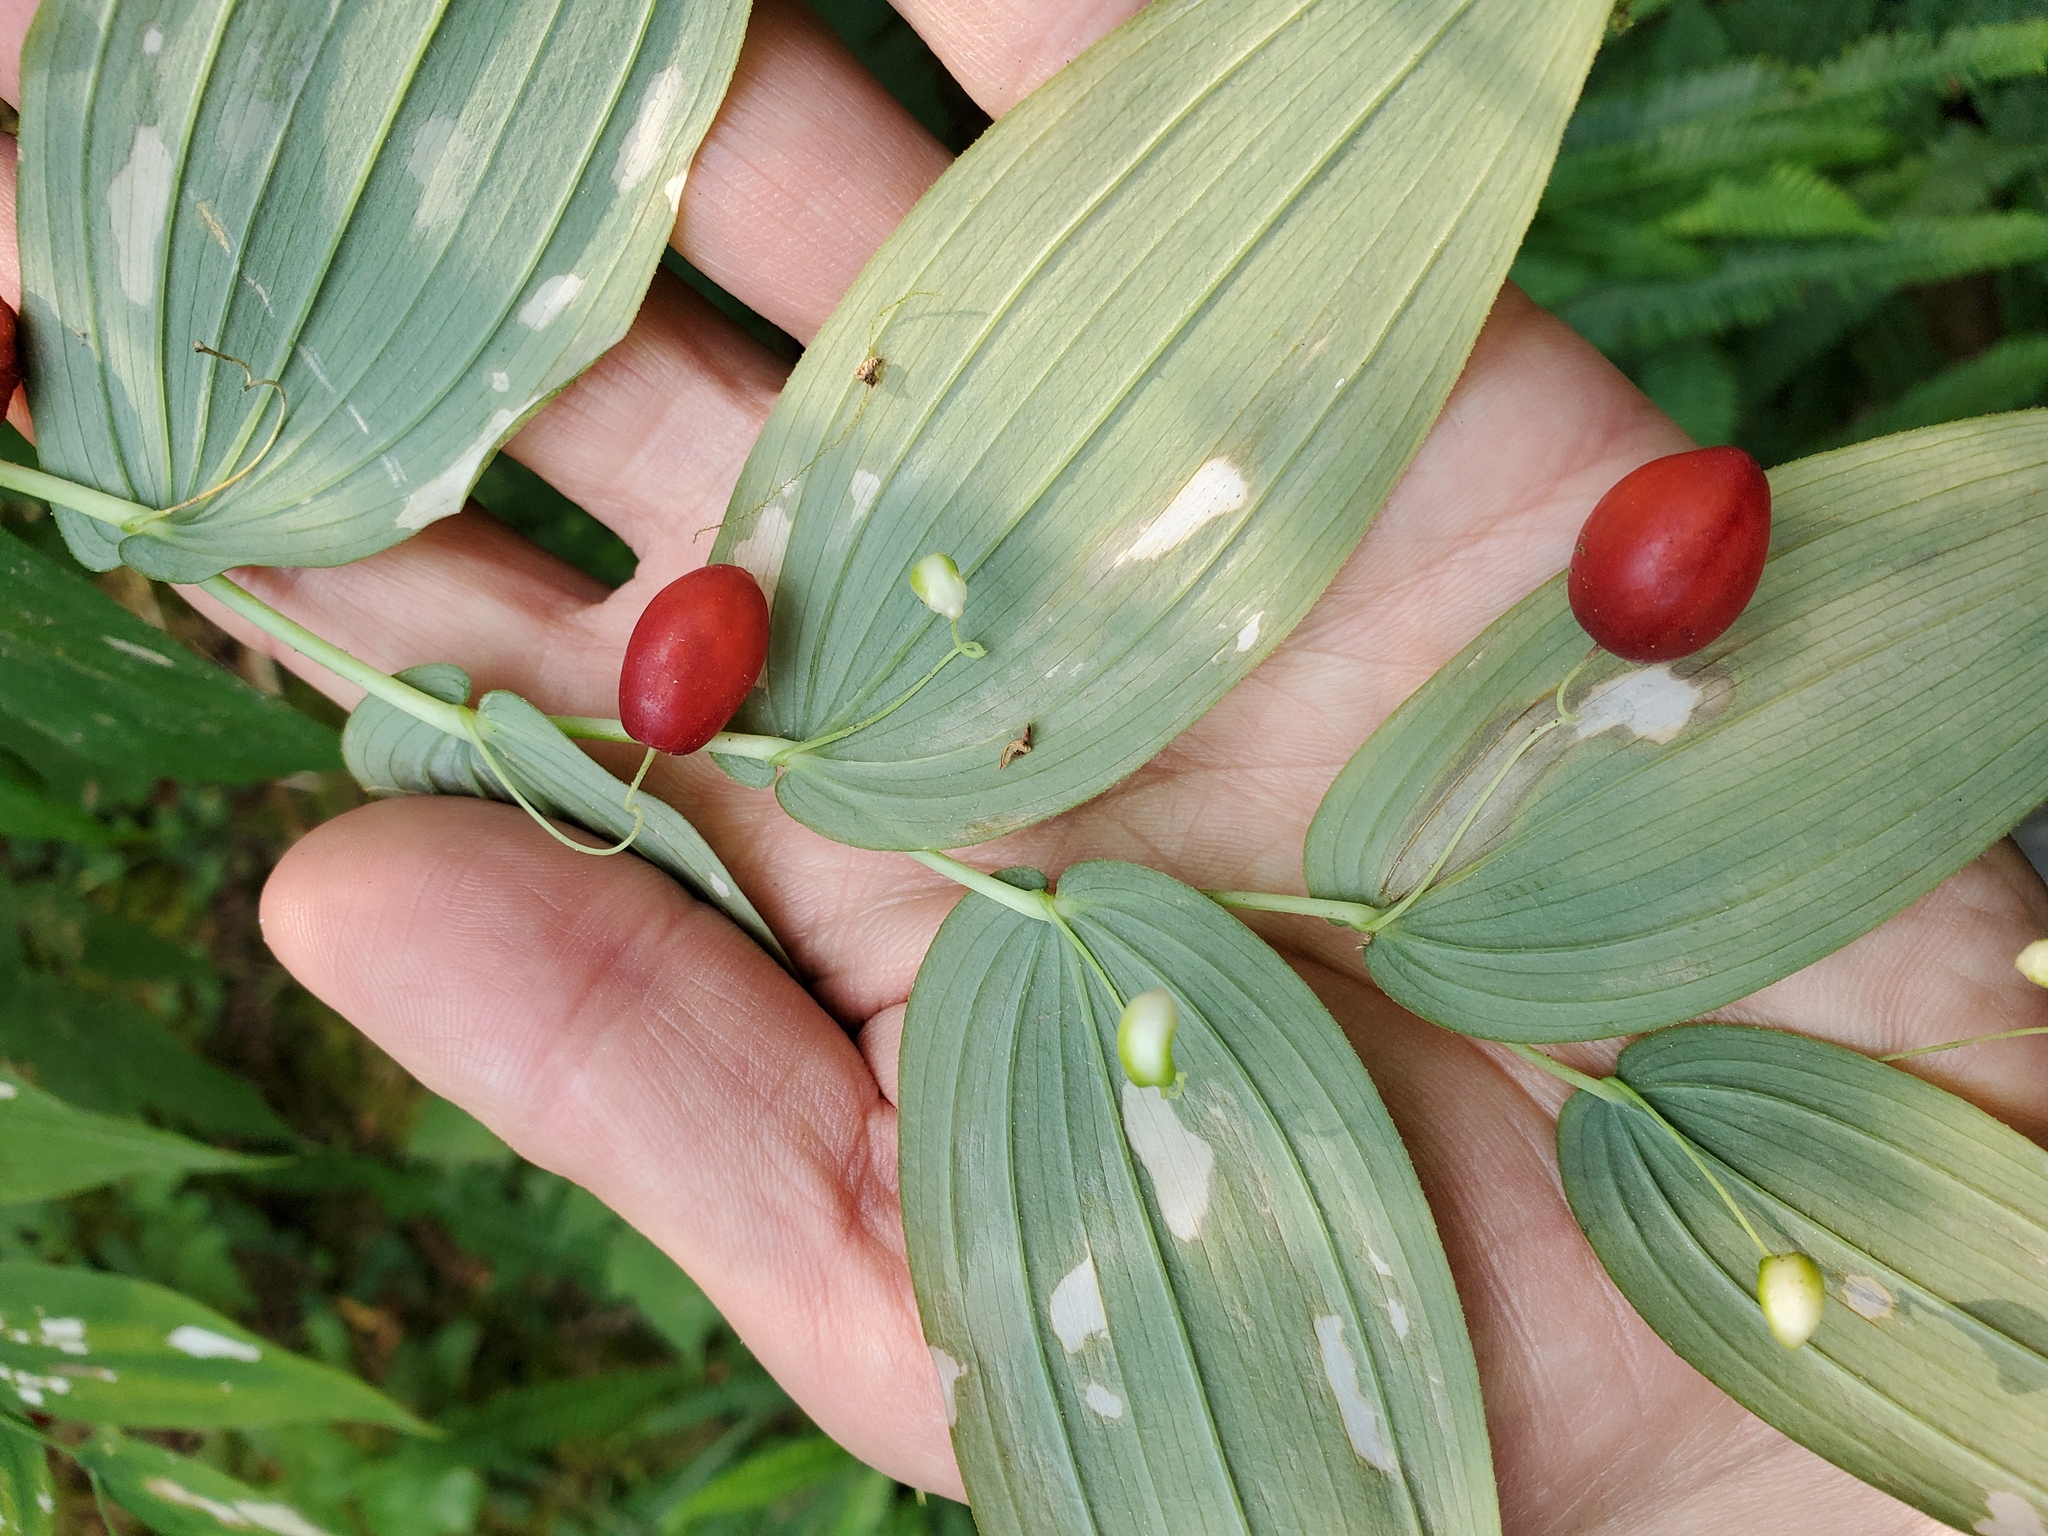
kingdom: Plantae
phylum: Tracheophyta
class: Liliopsida
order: Liliales
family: Liliaceae
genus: Streptopus
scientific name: Streptopus amplexifolius
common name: Clasp twisted stalk
